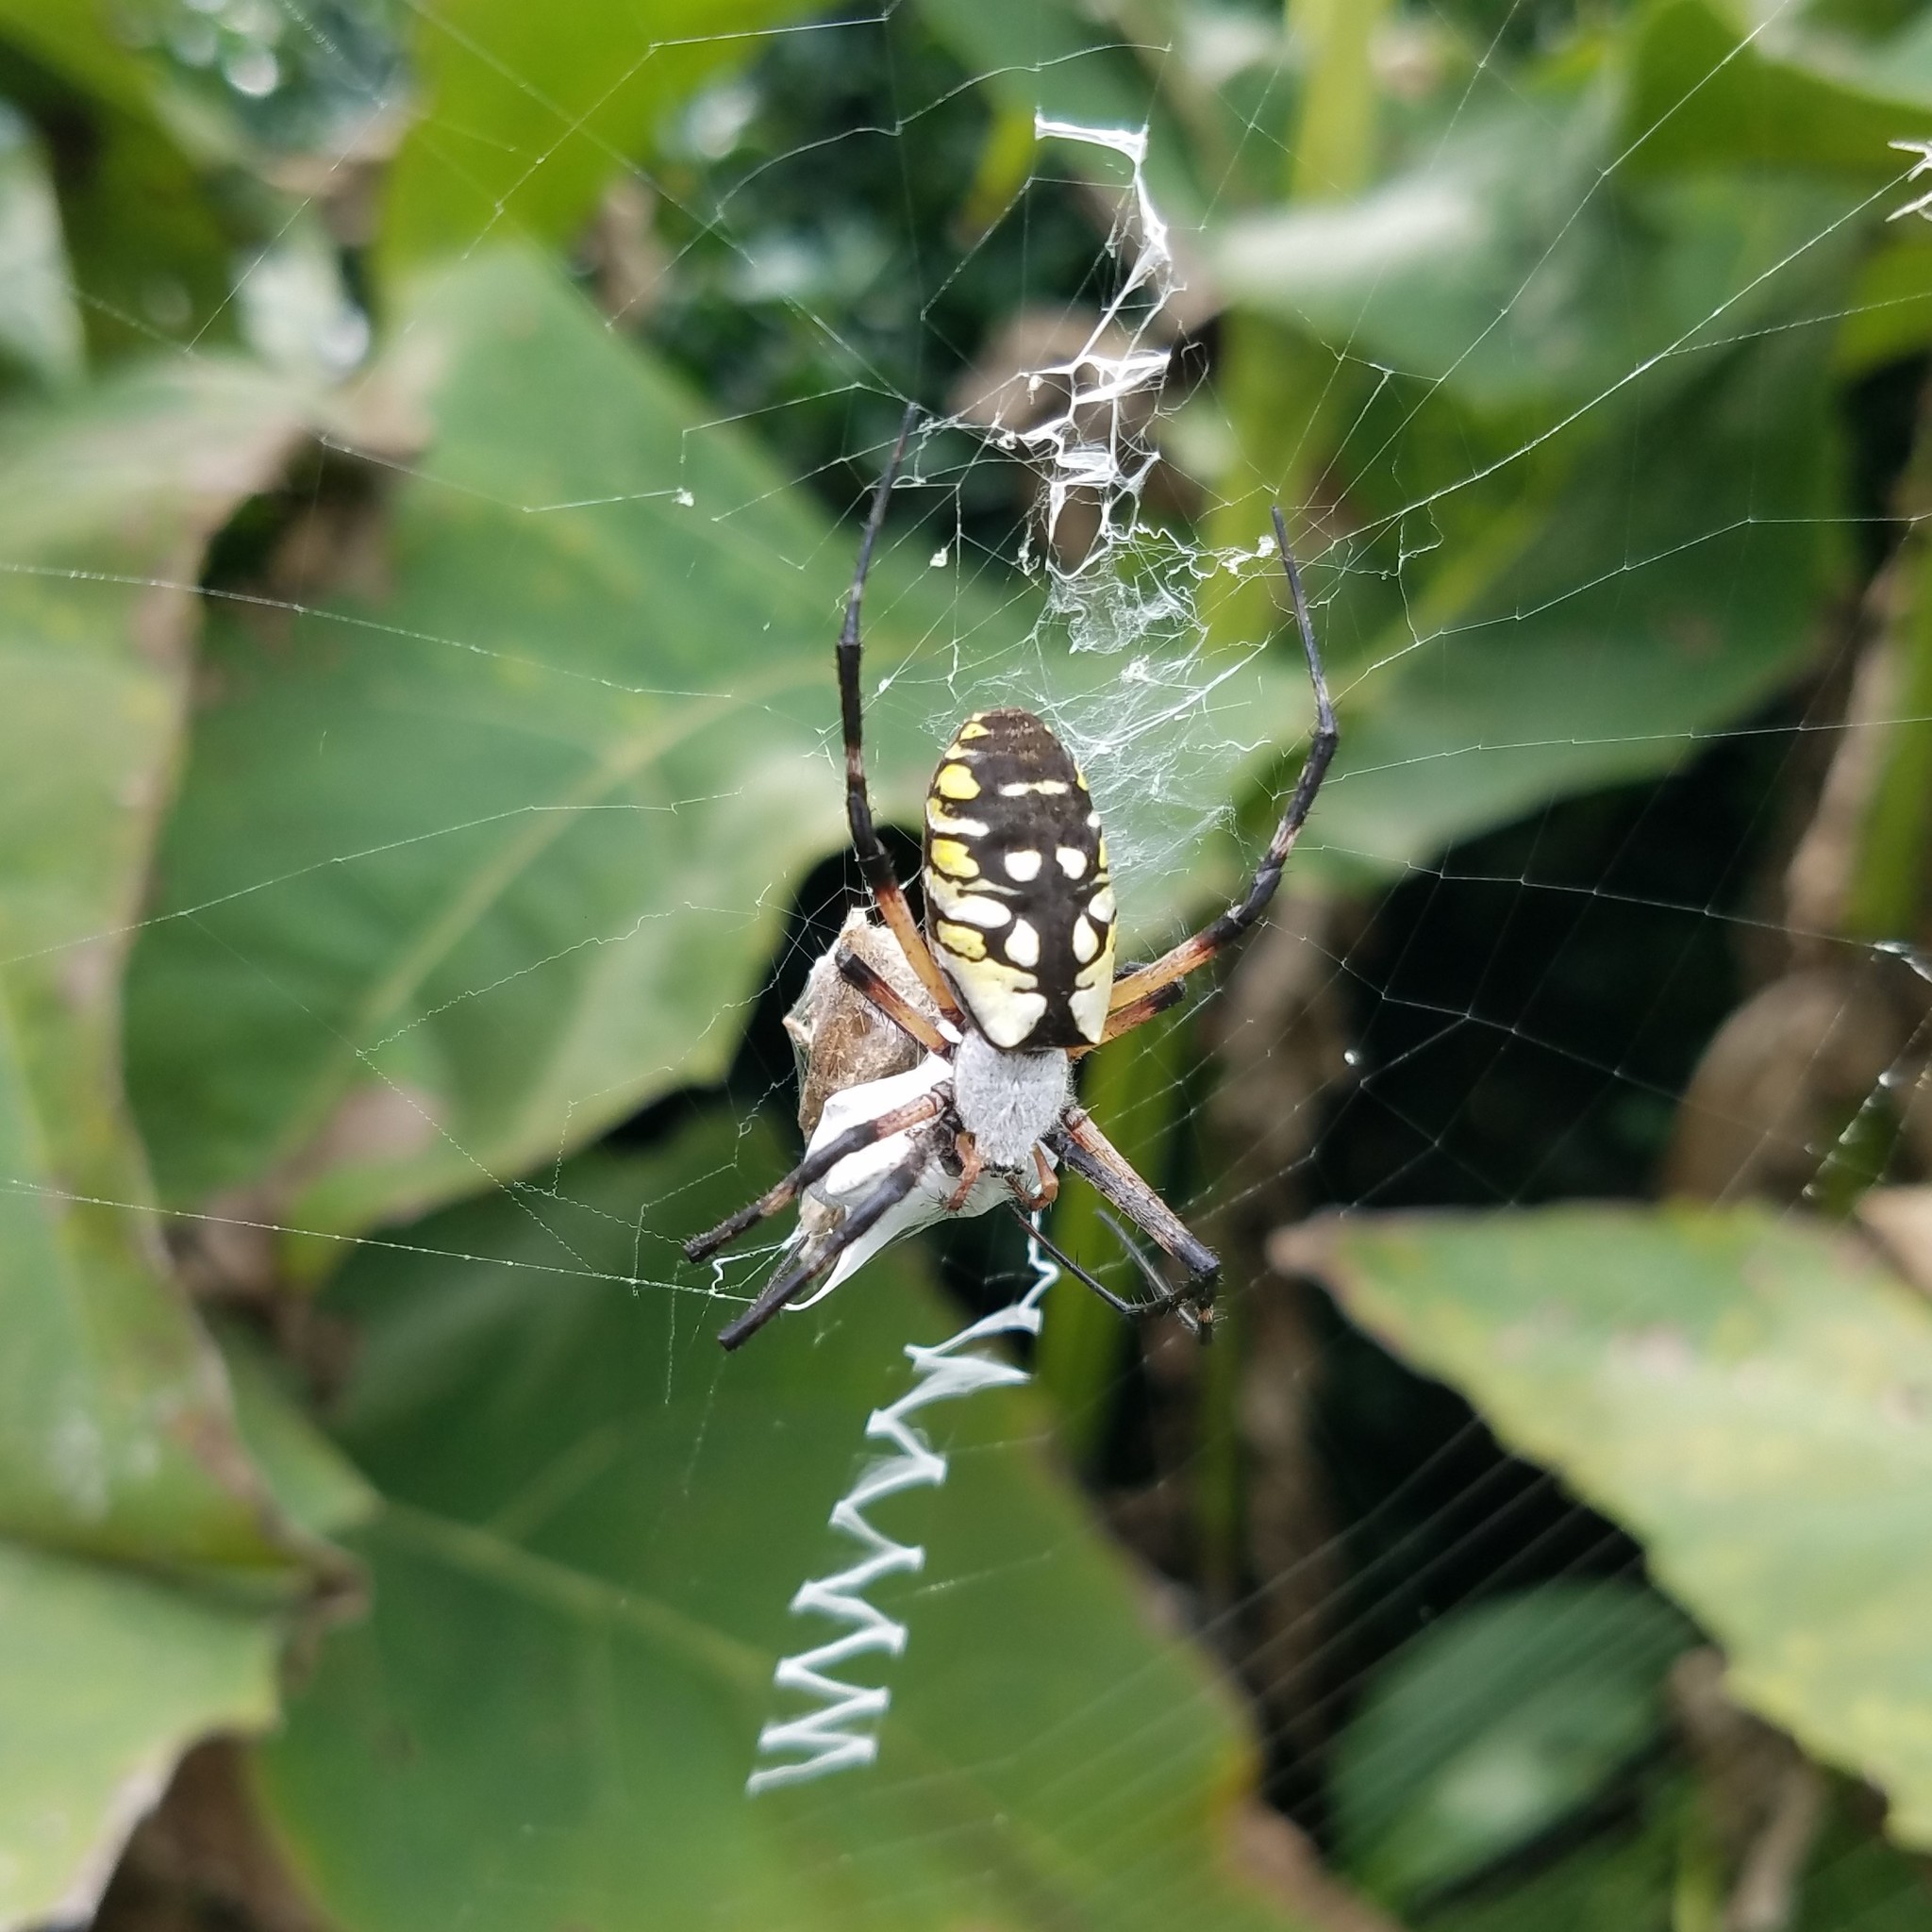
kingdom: Animalia
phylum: Arthropoda
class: Arachnida
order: Araneae
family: Araneidae
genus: Argiope
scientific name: Argiope aurantia
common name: Orb weavers
